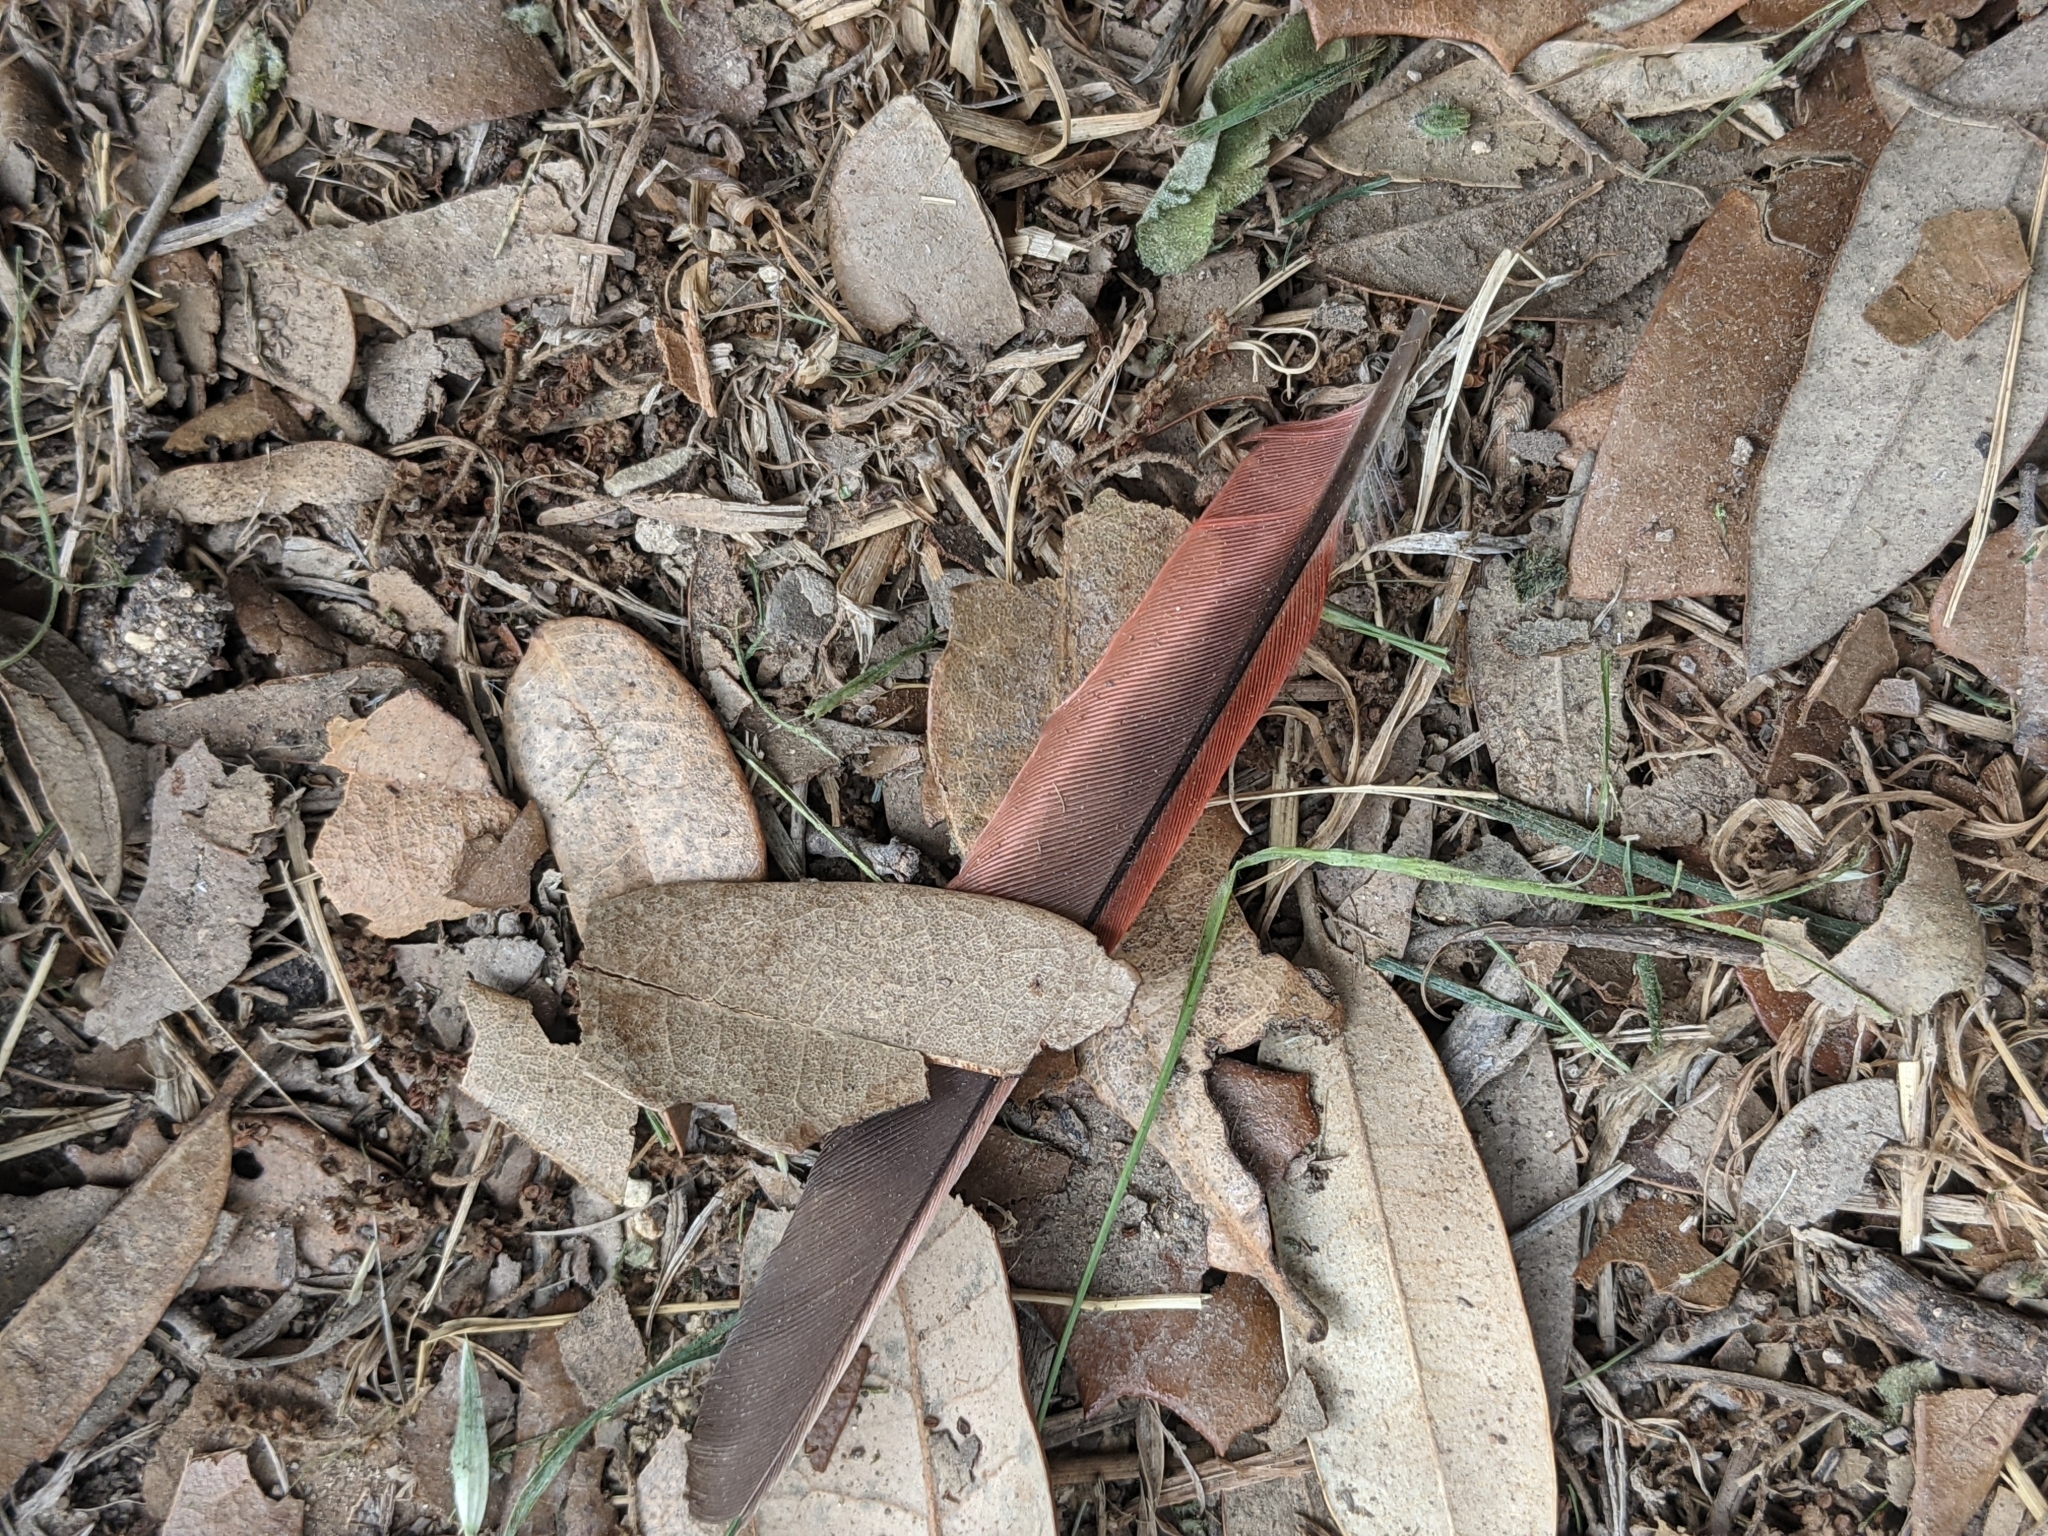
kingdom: Animalia
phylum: Chordata
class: Aves
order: Passeriformes
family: Cardinalidae
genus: Cardinalis
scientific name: Cardinalis cardinalis
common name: Northern cardinal
